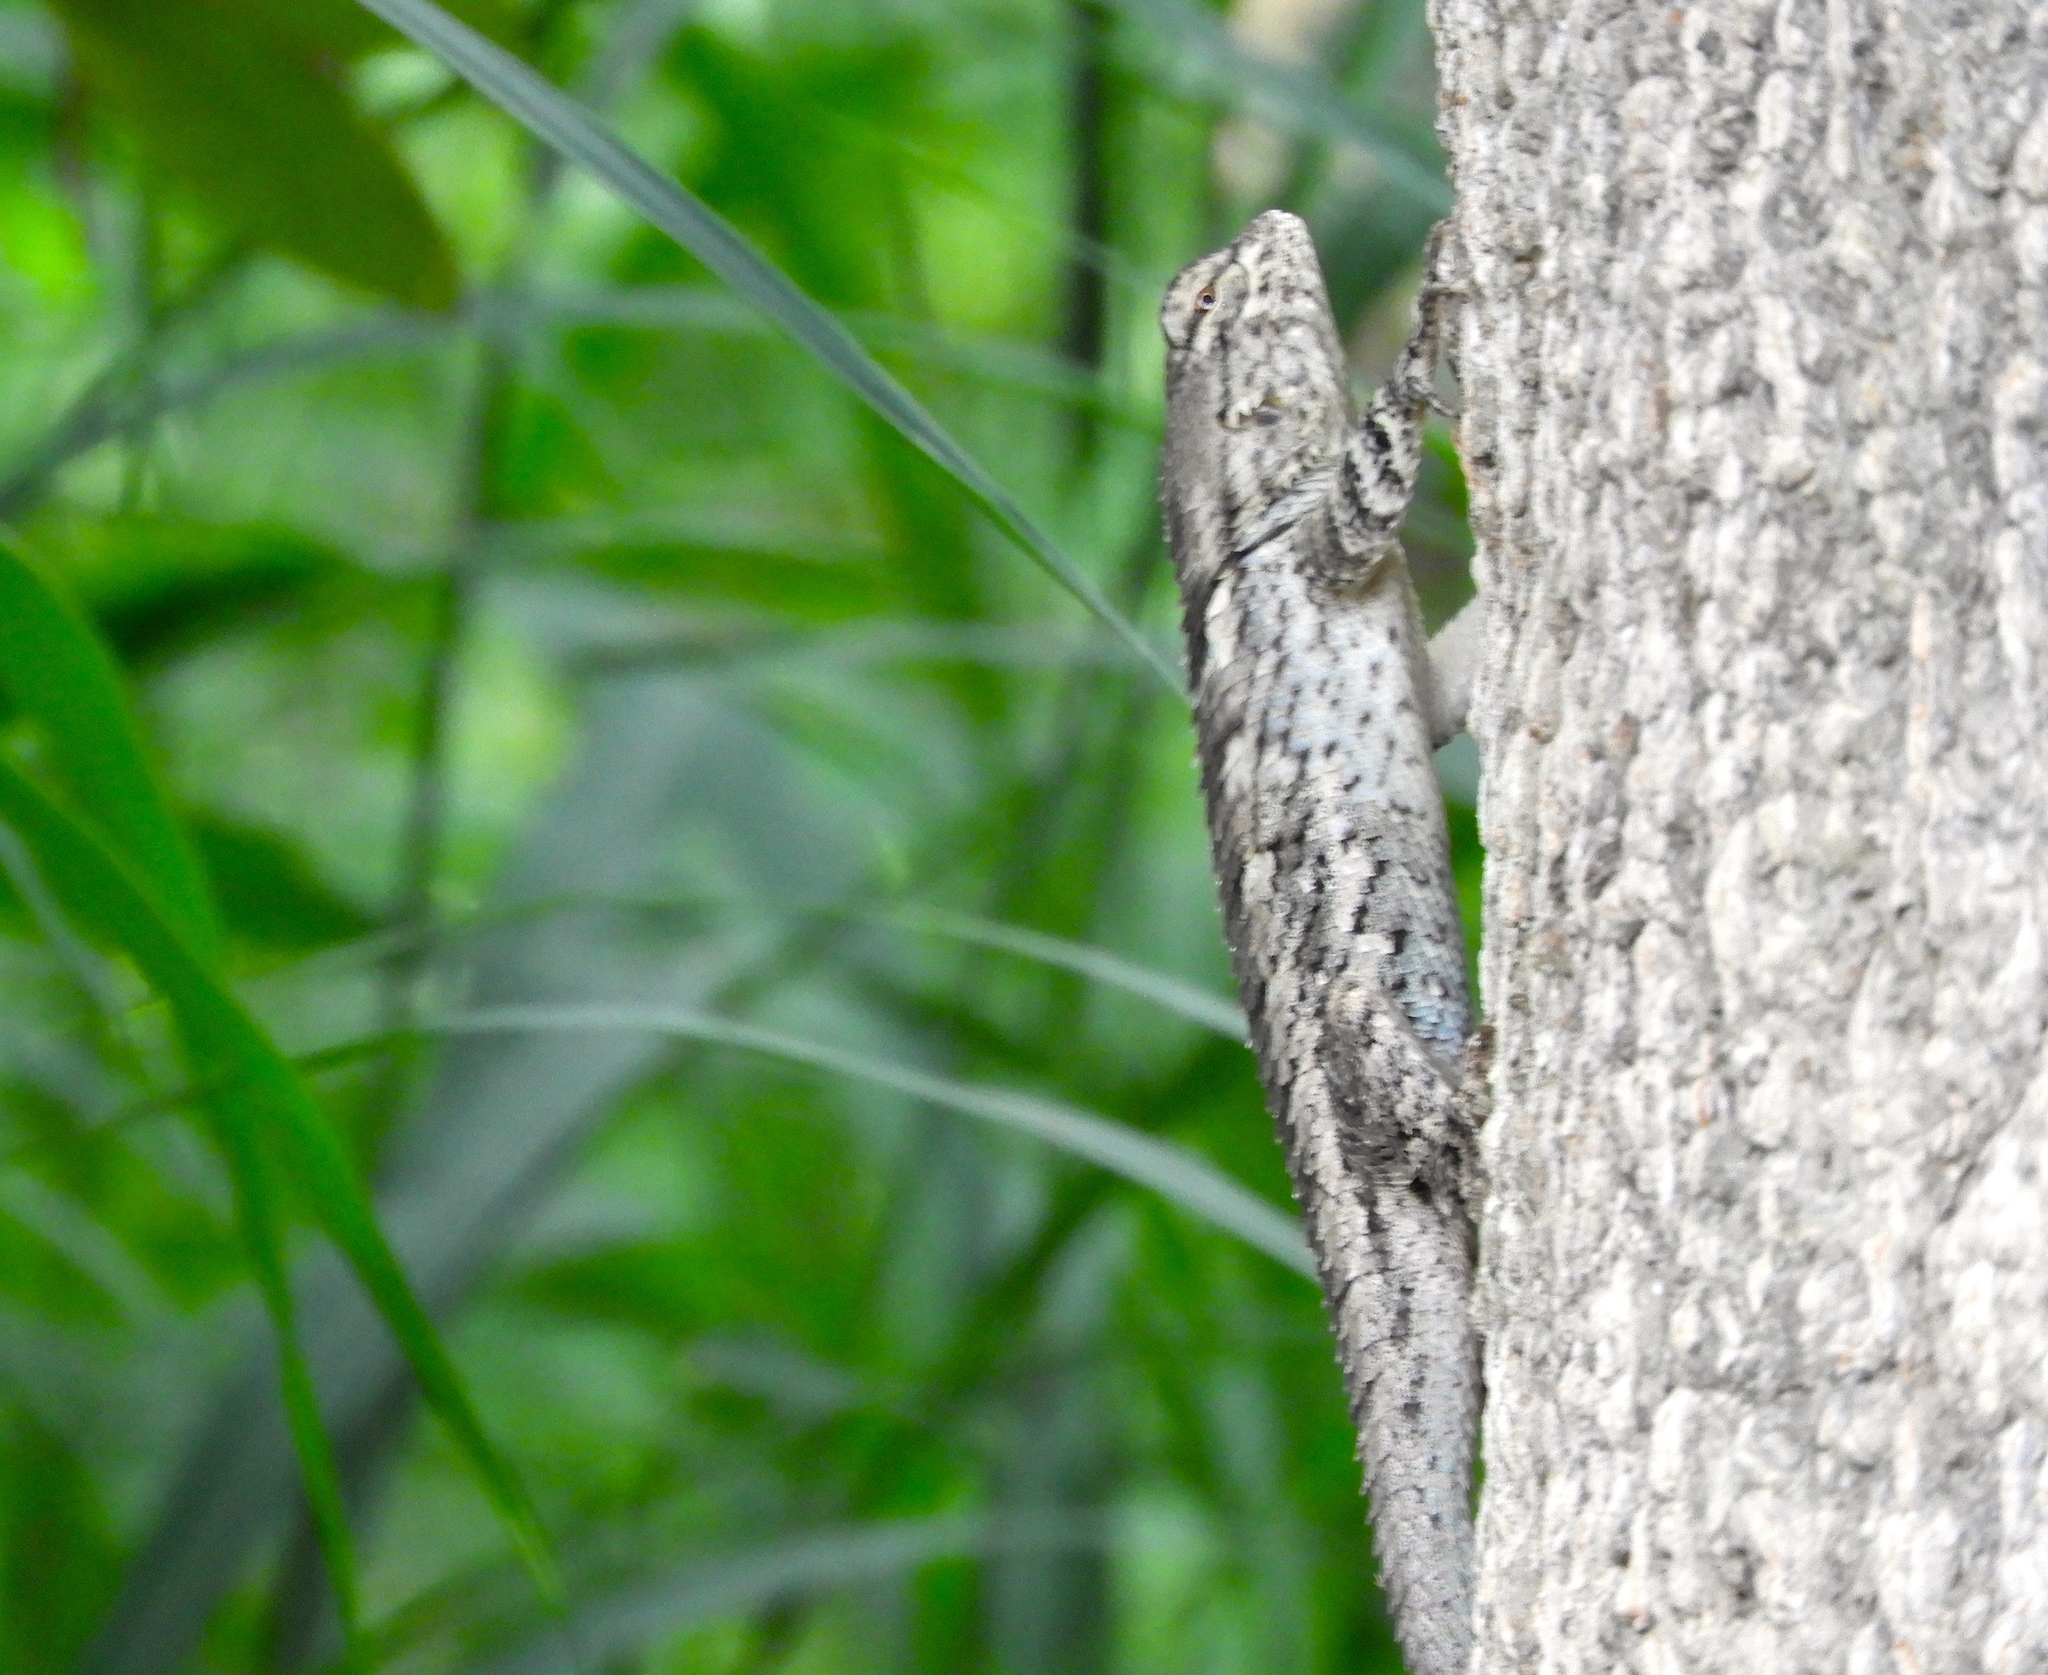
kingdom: Animalia
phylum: Chordata
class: Squamata
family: Phrynosomatidae
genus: Sceloporus
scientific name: Sceloporus clarkii
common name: Clark's spiny lizard
